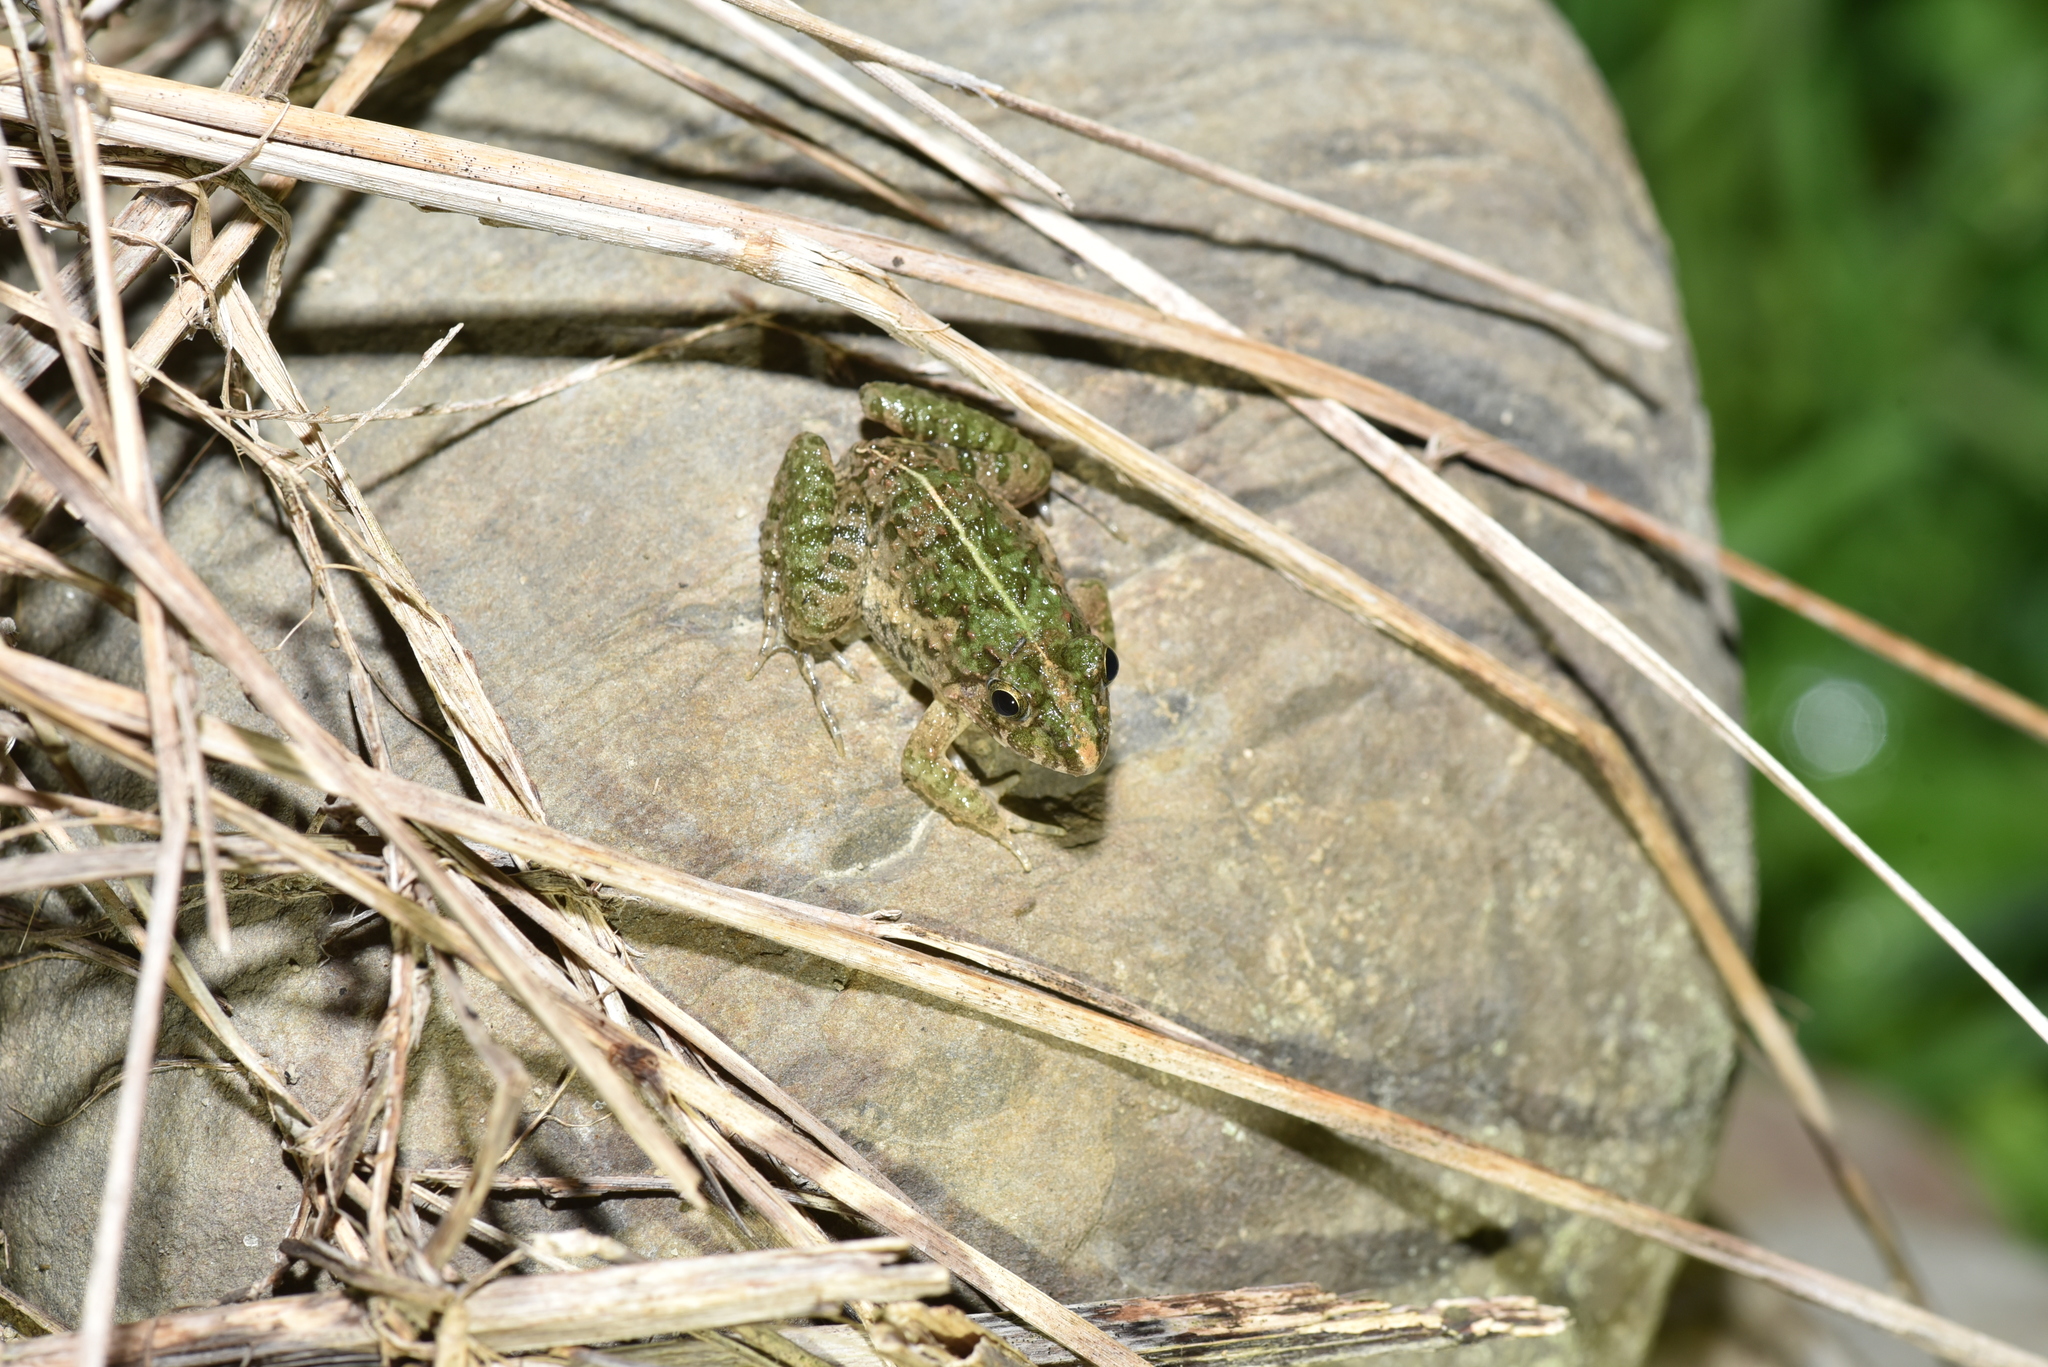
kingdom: Animalia
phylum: Chordata
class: Amphibia
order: Anura
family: Dicroglossidae
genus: Fejervarya
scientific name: Fejervarya limnocharis
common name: Asian grass frog/common pond frog/field frog/grass frog/indian rice frog
